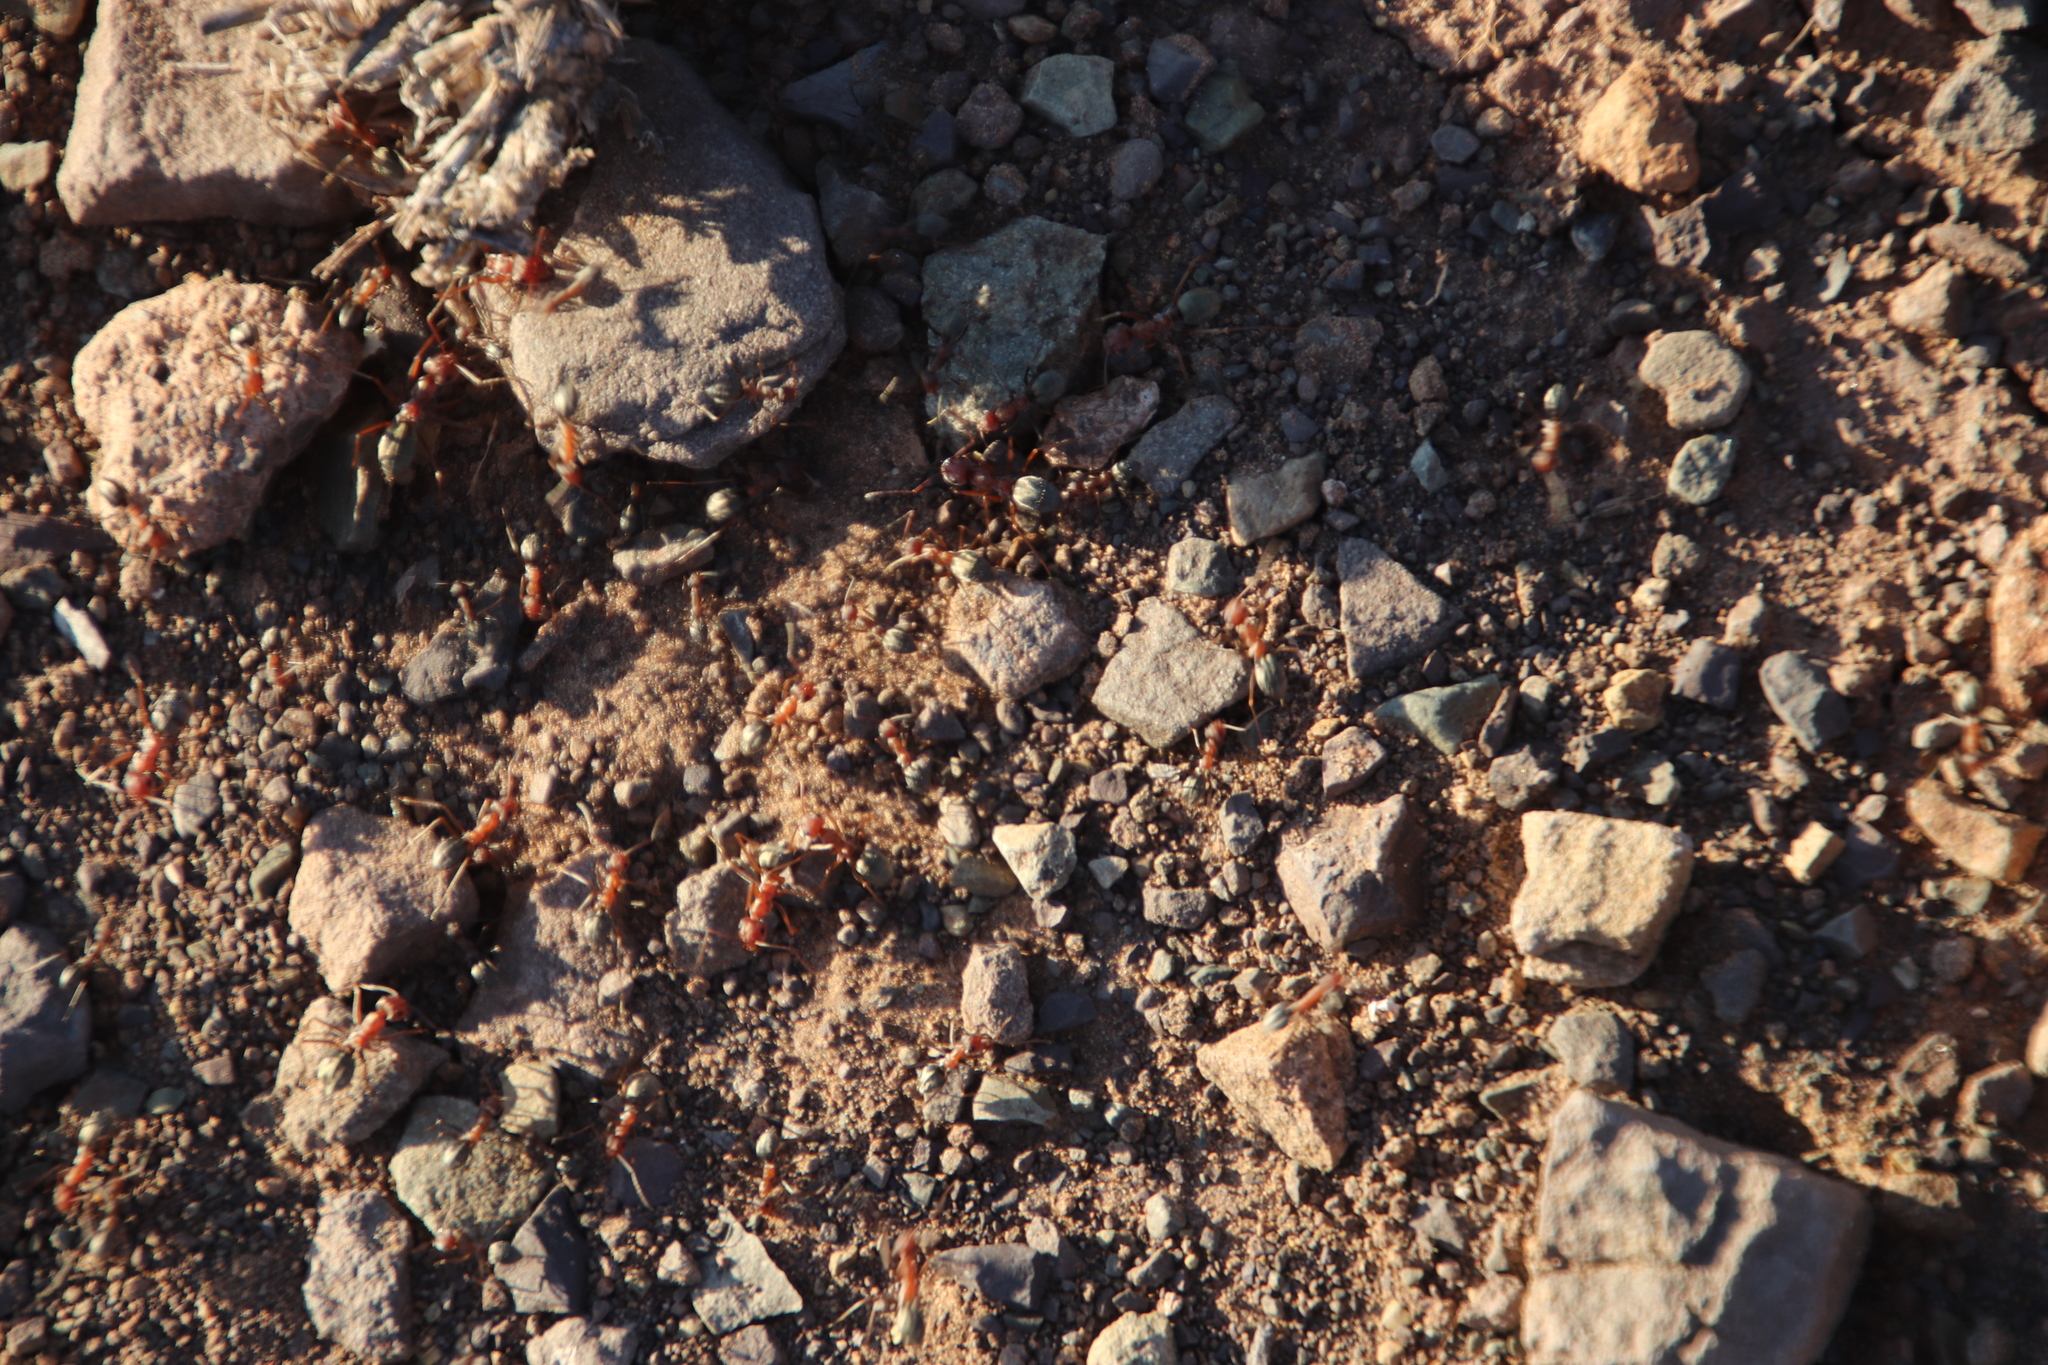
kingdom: Animalia
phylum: Arthropoda
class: Insecta
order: Hymenoptera
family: Formicidae
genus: Anoplolepis
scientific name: Anoplolepis custodiens
